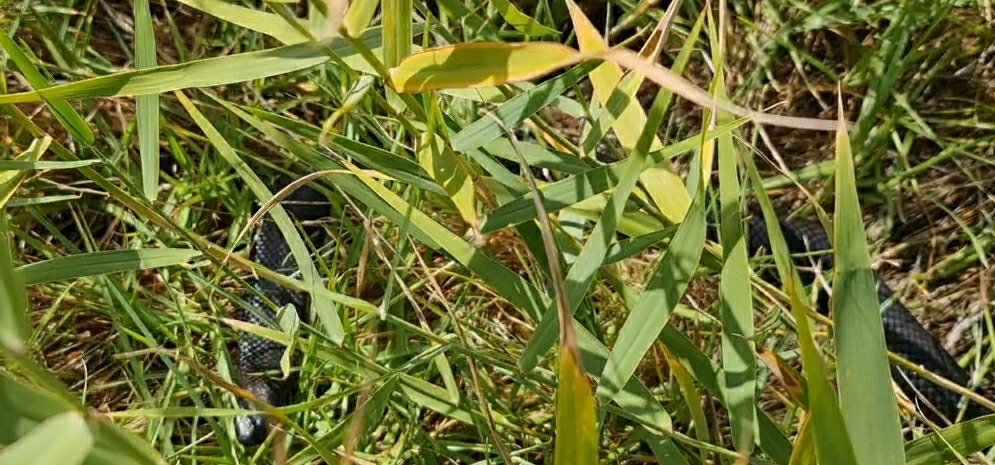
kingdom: Animalia
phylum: Chordata
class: Squamata
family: Elapidae
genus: Pseudechis
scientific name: Pseudechis porphyriacus
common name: Australian black snake
